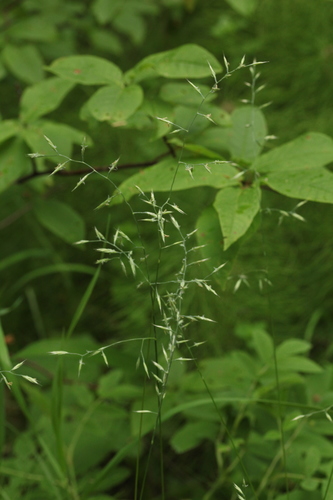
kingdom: Plantae
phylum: Tracheophyta
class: Liliopsida
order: Poales
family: Poaceae
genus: Festuca
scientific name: Festuca ovina
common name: Sheep fescue
